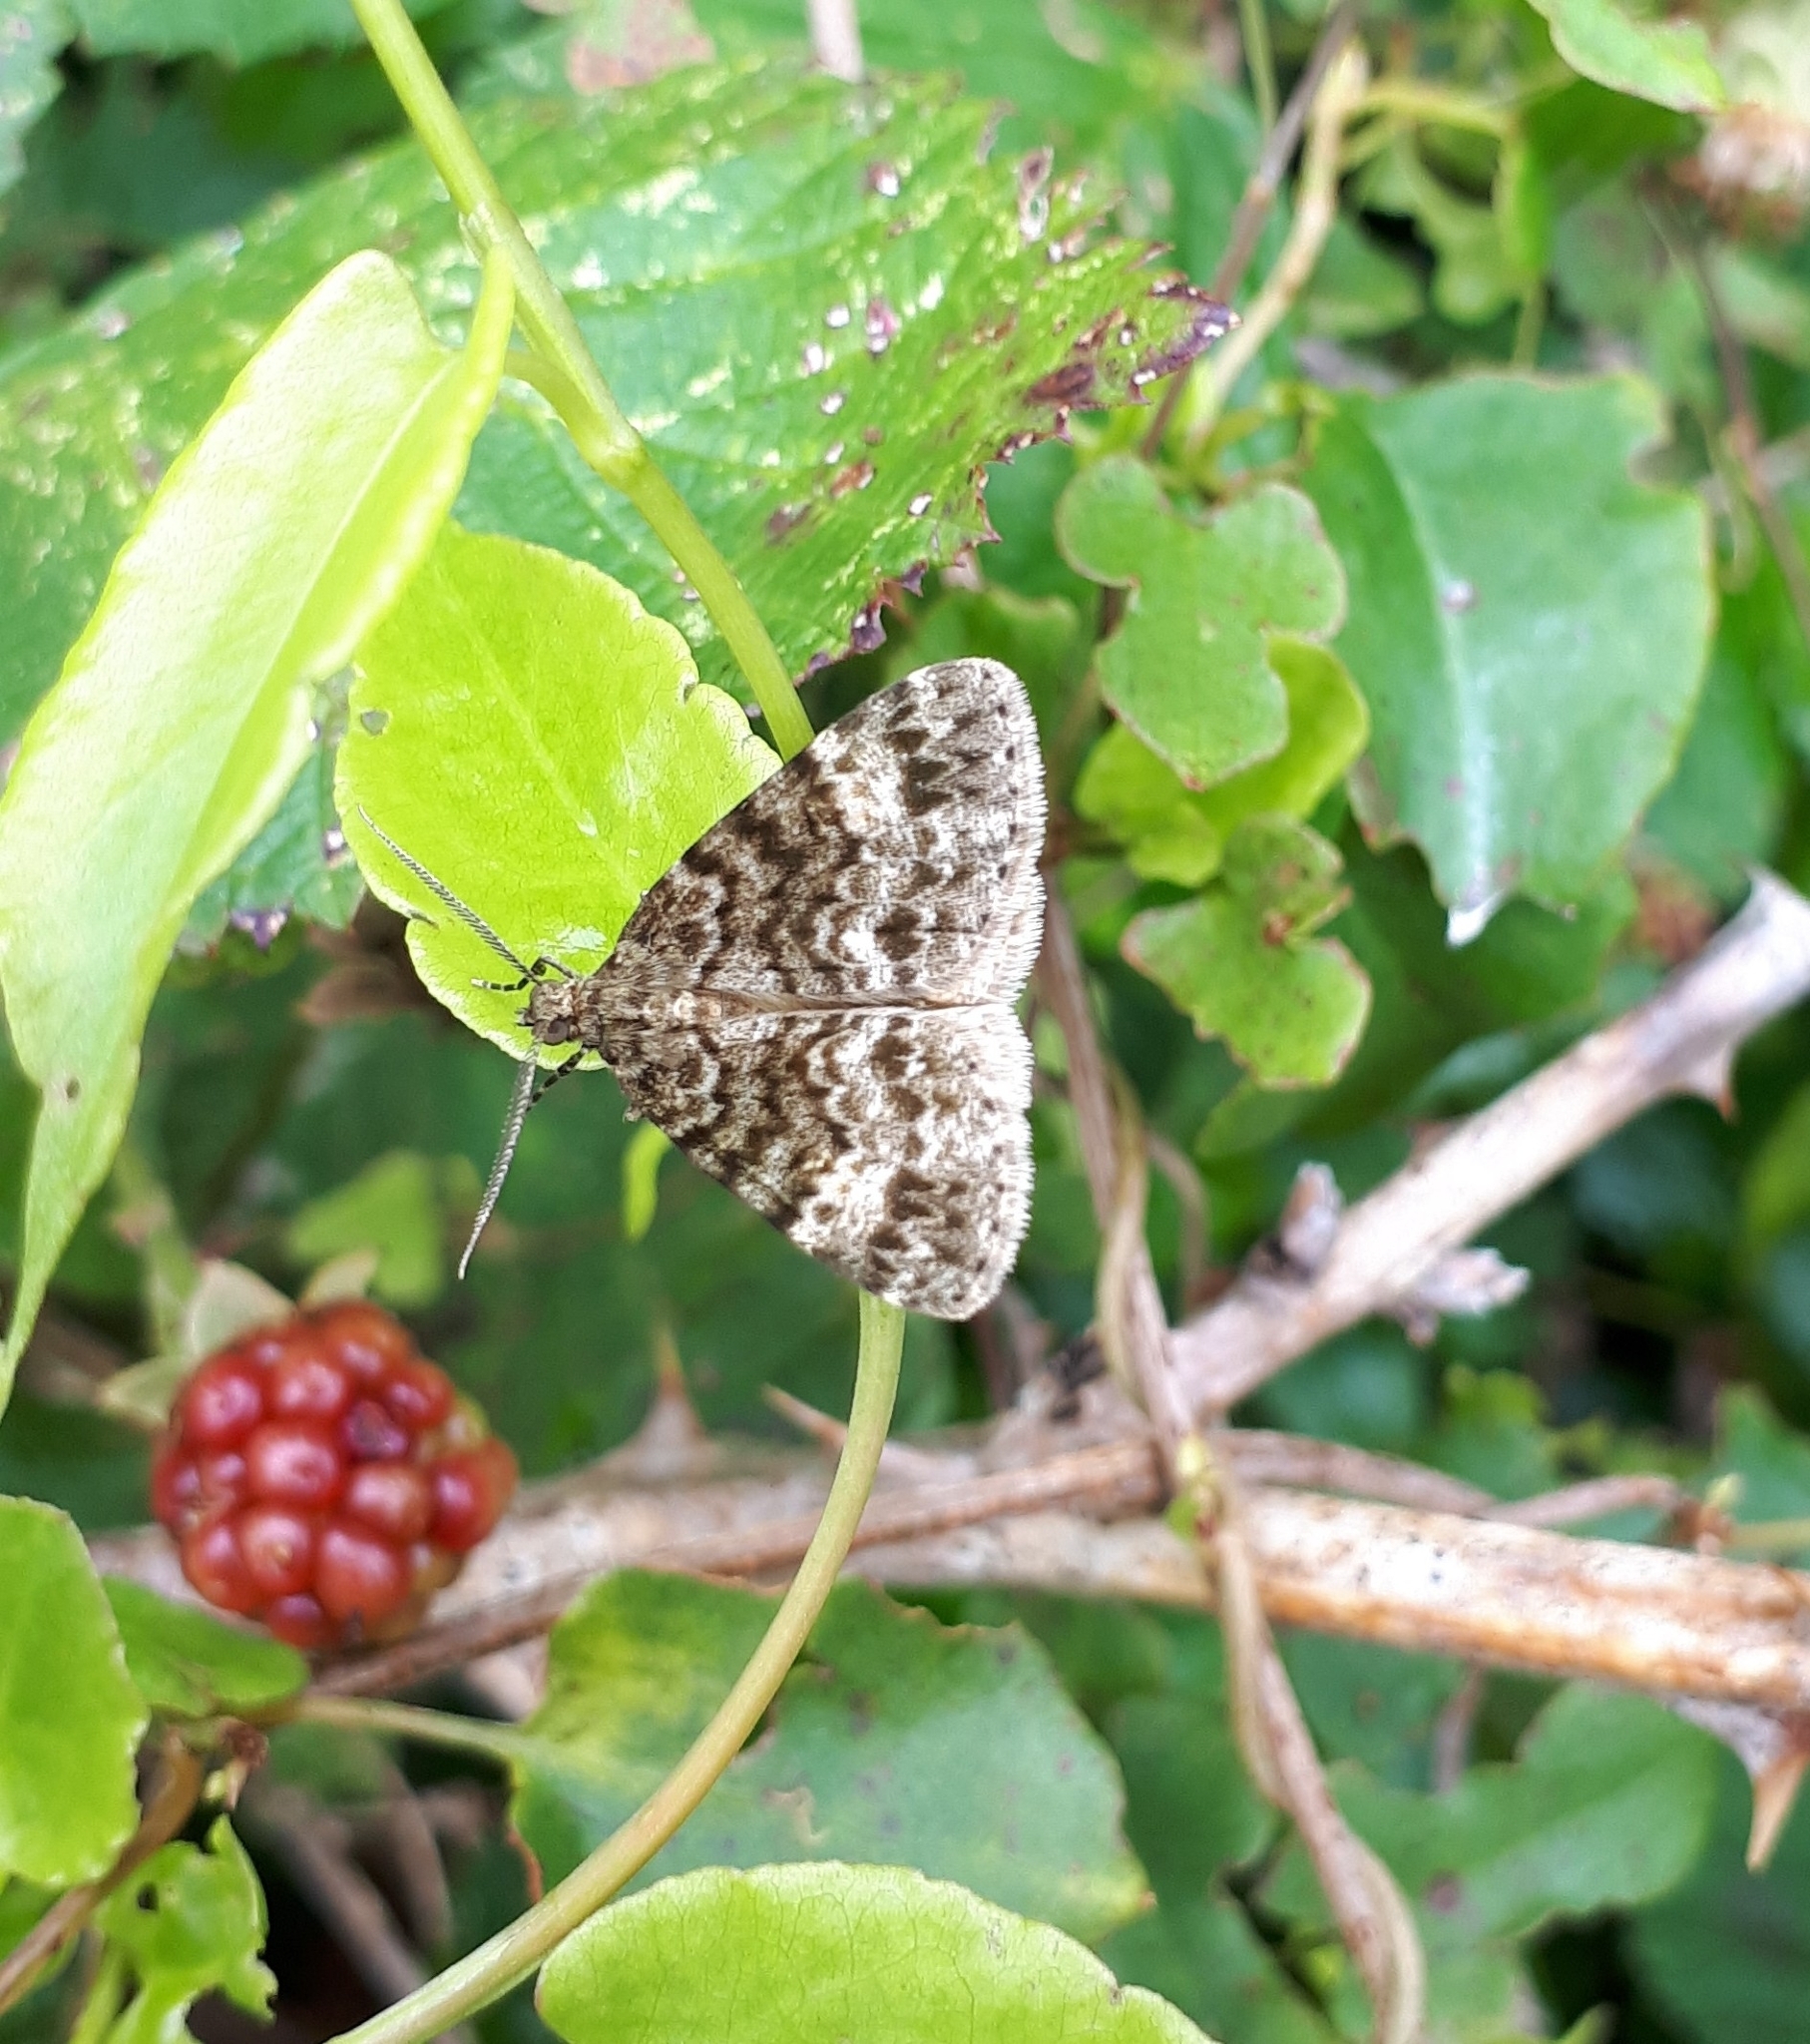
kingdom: Animalia
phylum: Arthropoda
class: Insecta
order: Lepidoptera
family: Geometridae
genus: Pseudocoremia
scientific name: Pseudocoremia indistincta
